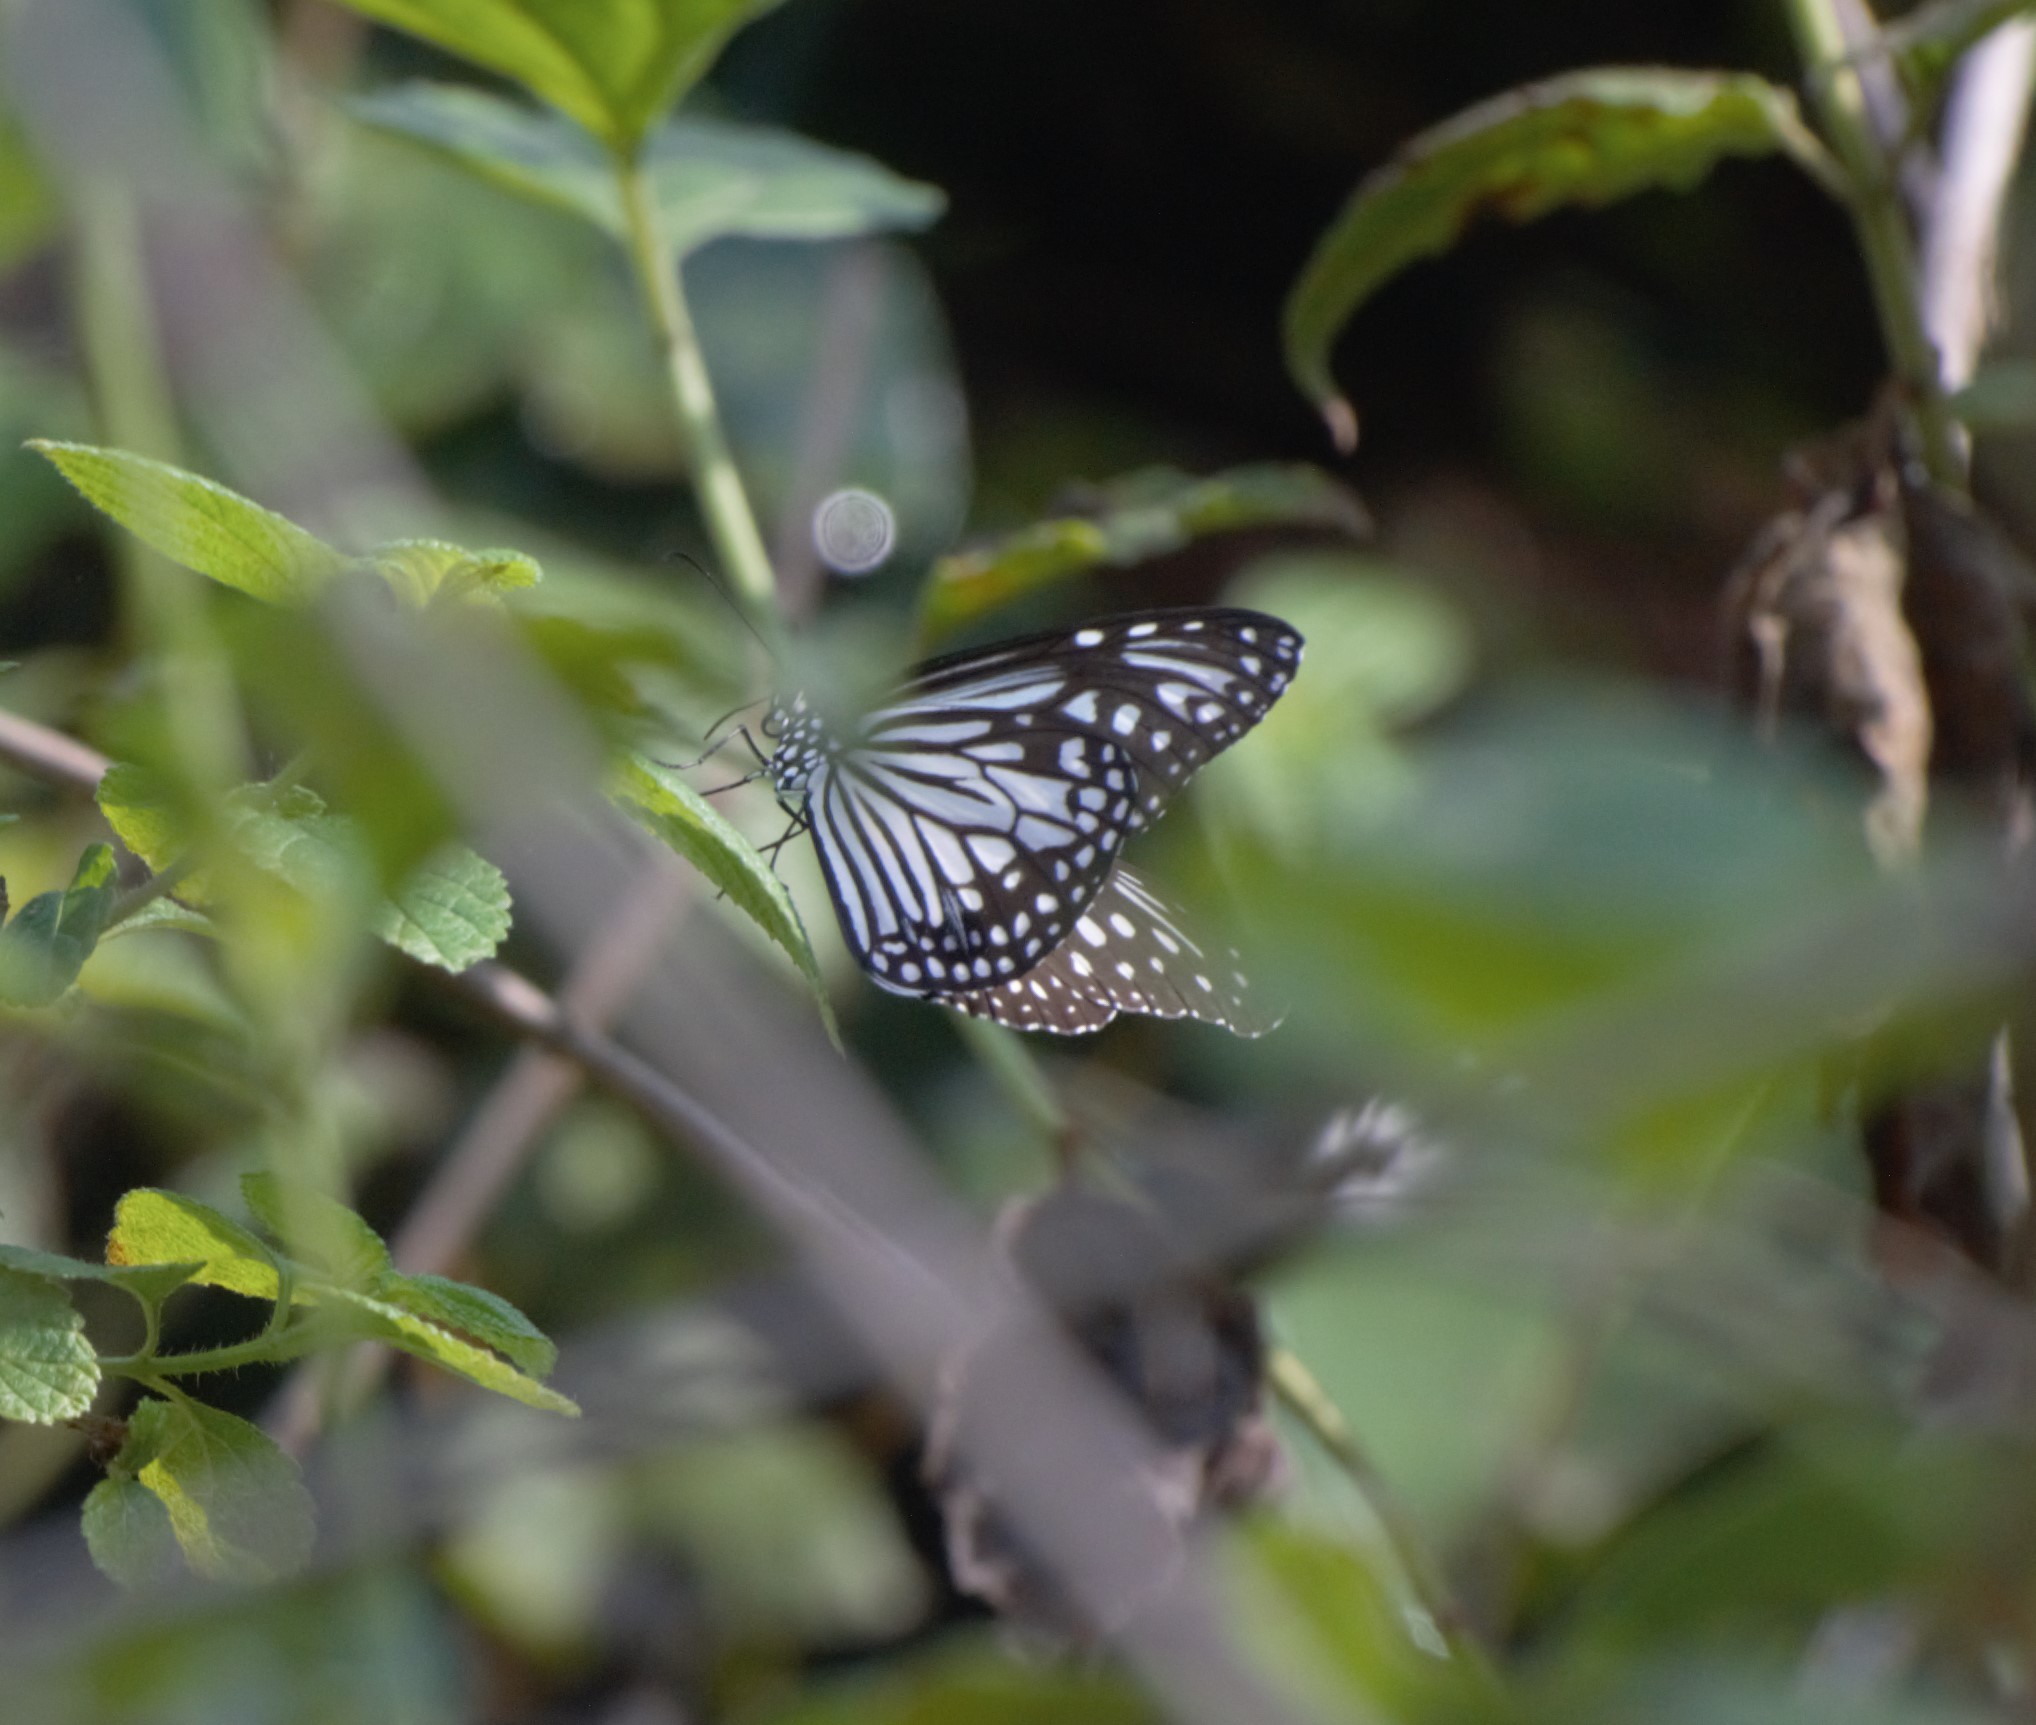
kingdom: Animalia
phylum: Arthropoda
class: Insecta
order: Lepidoptera
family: Nymphalidae
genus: Parantica
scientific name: Parantica aglea
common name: Glassy tiger
